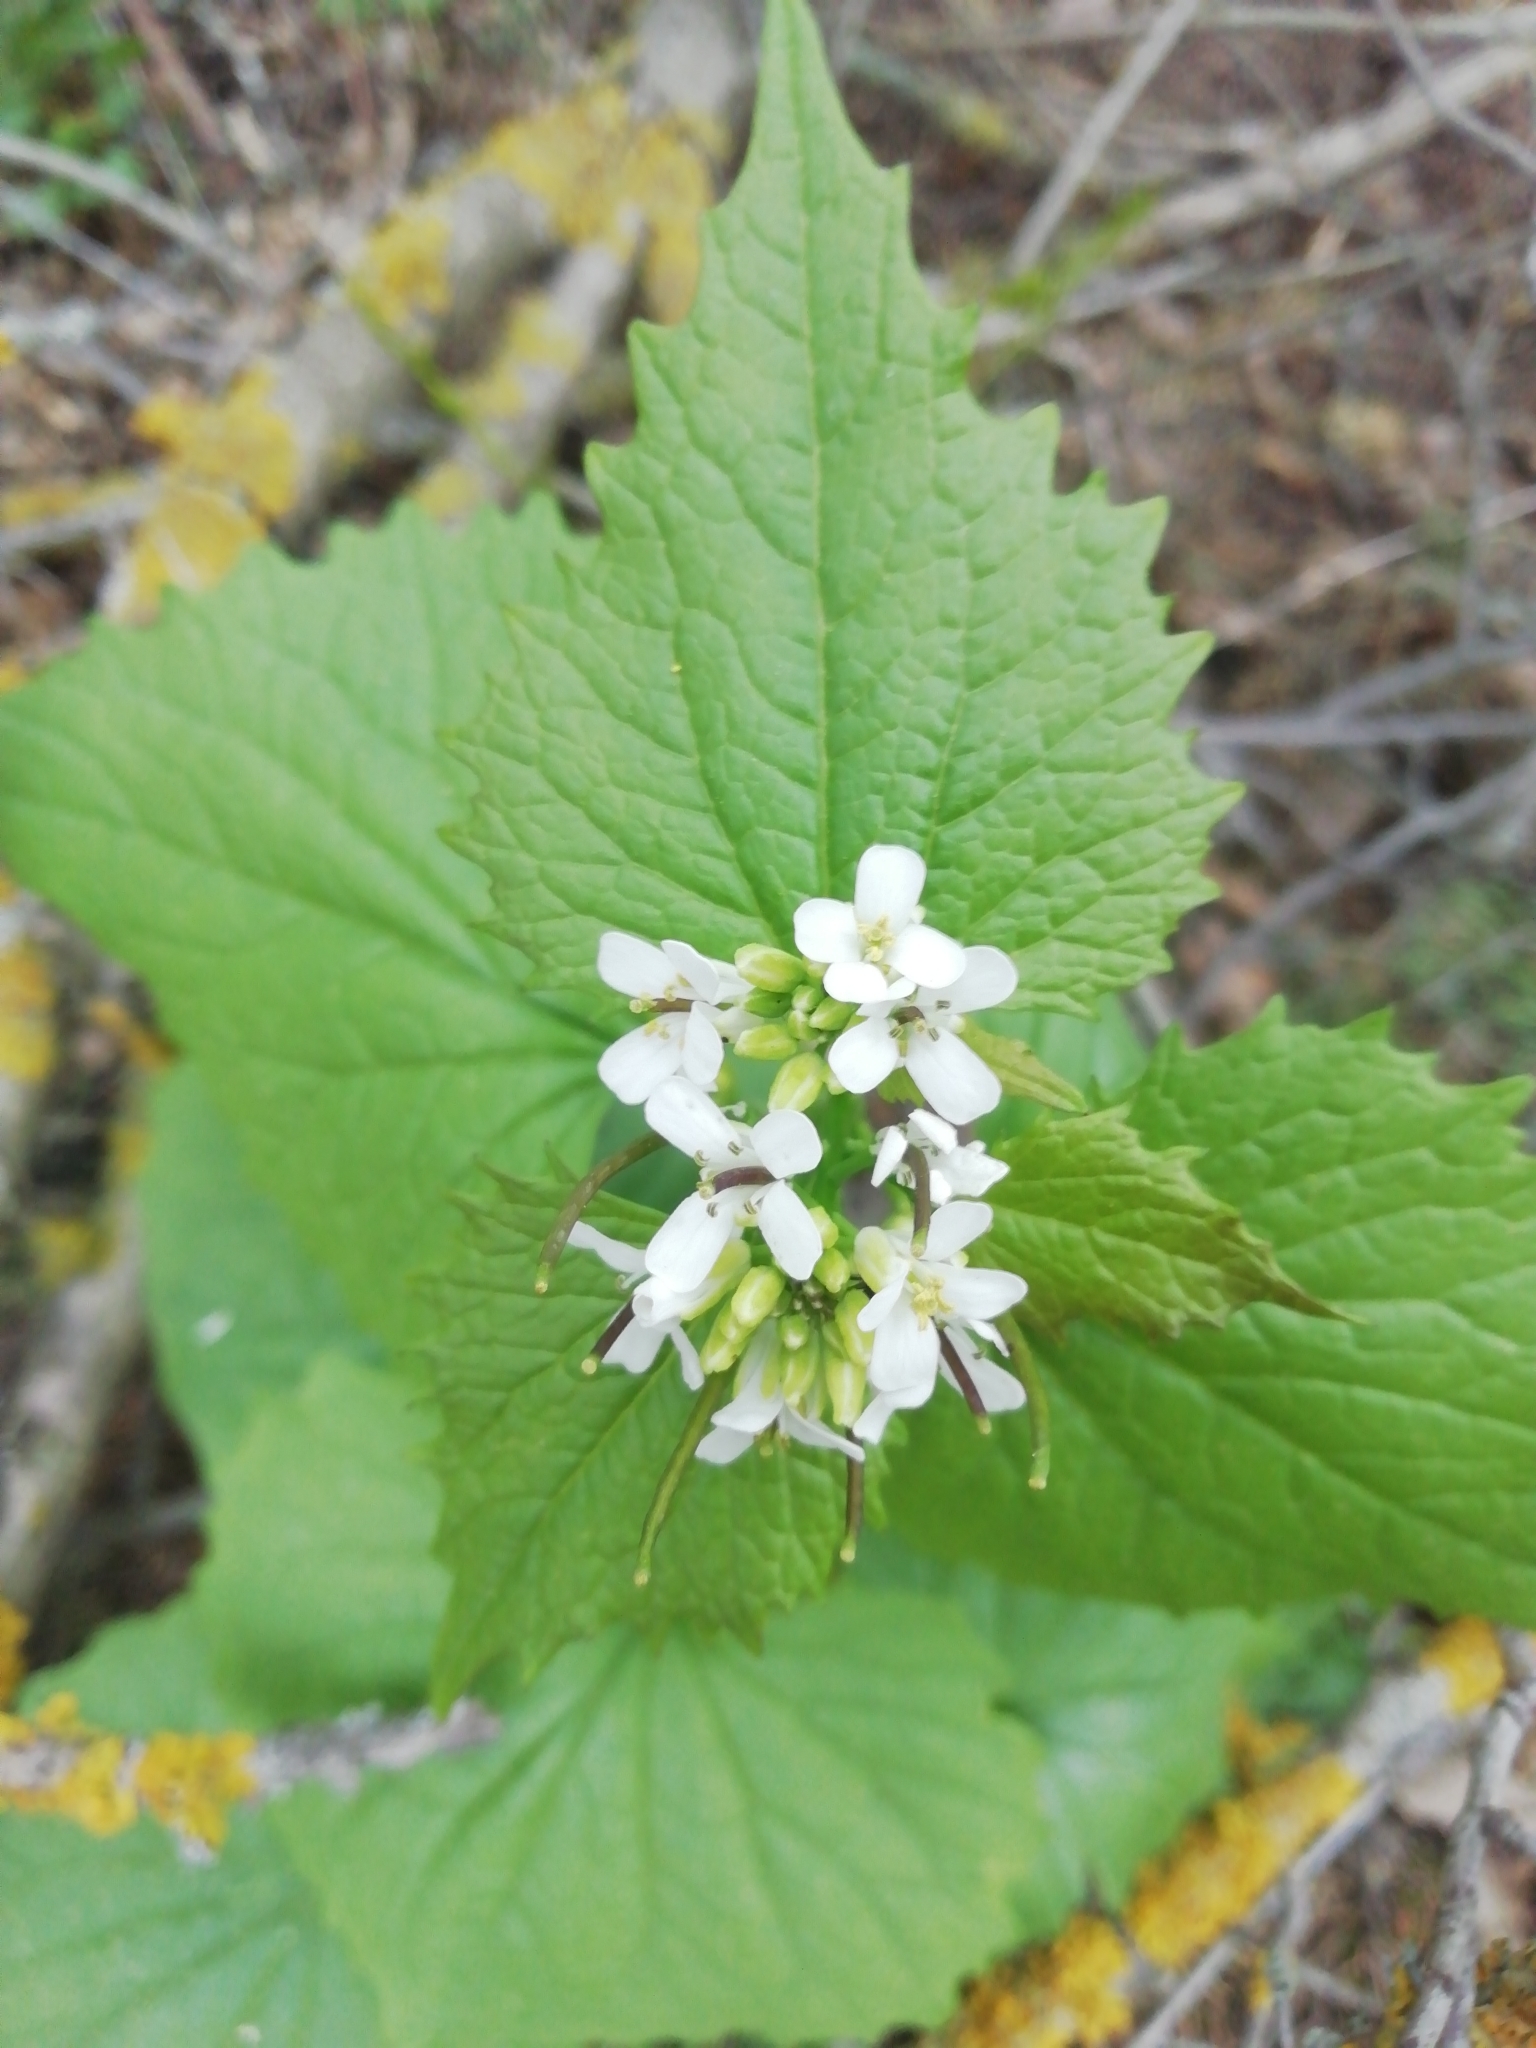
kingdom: Plantae
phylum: Tracheophyta
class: Magnoliopsida
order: Brassicales
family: Brassicaceae
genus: Alliaria
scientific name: Alliaria petiolata
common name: Garlic mustard
